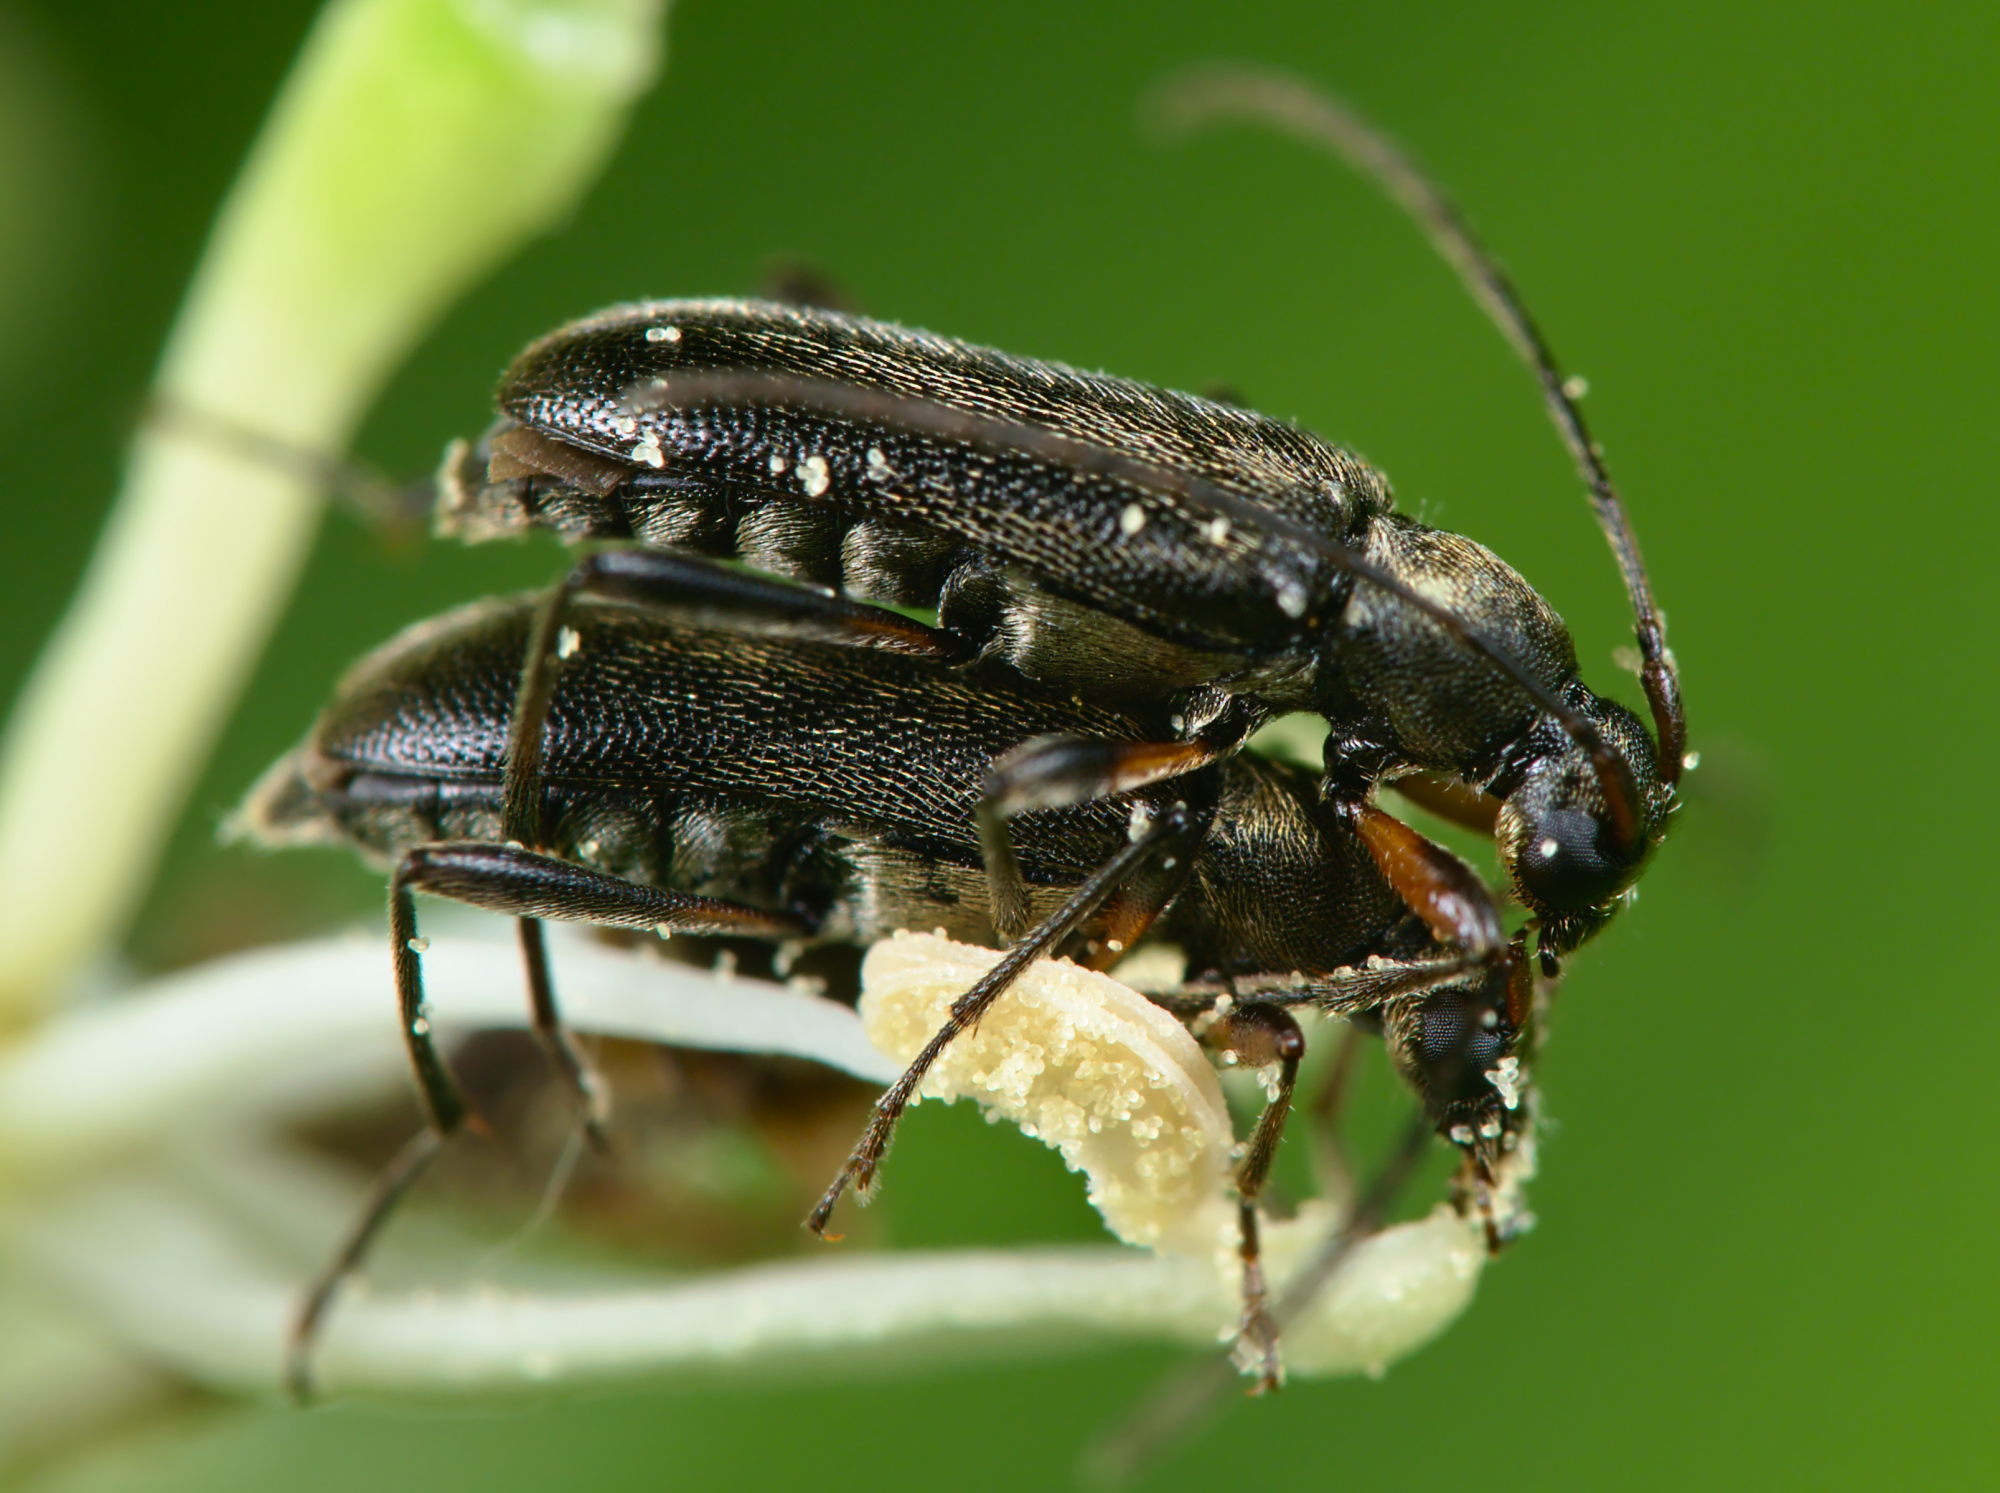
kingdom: Animalia
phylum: Arthropoda
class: Insecta
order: Coleoptera
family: Cerambycidae
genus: Grammoptera
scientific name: Grammoptera ruficornis
